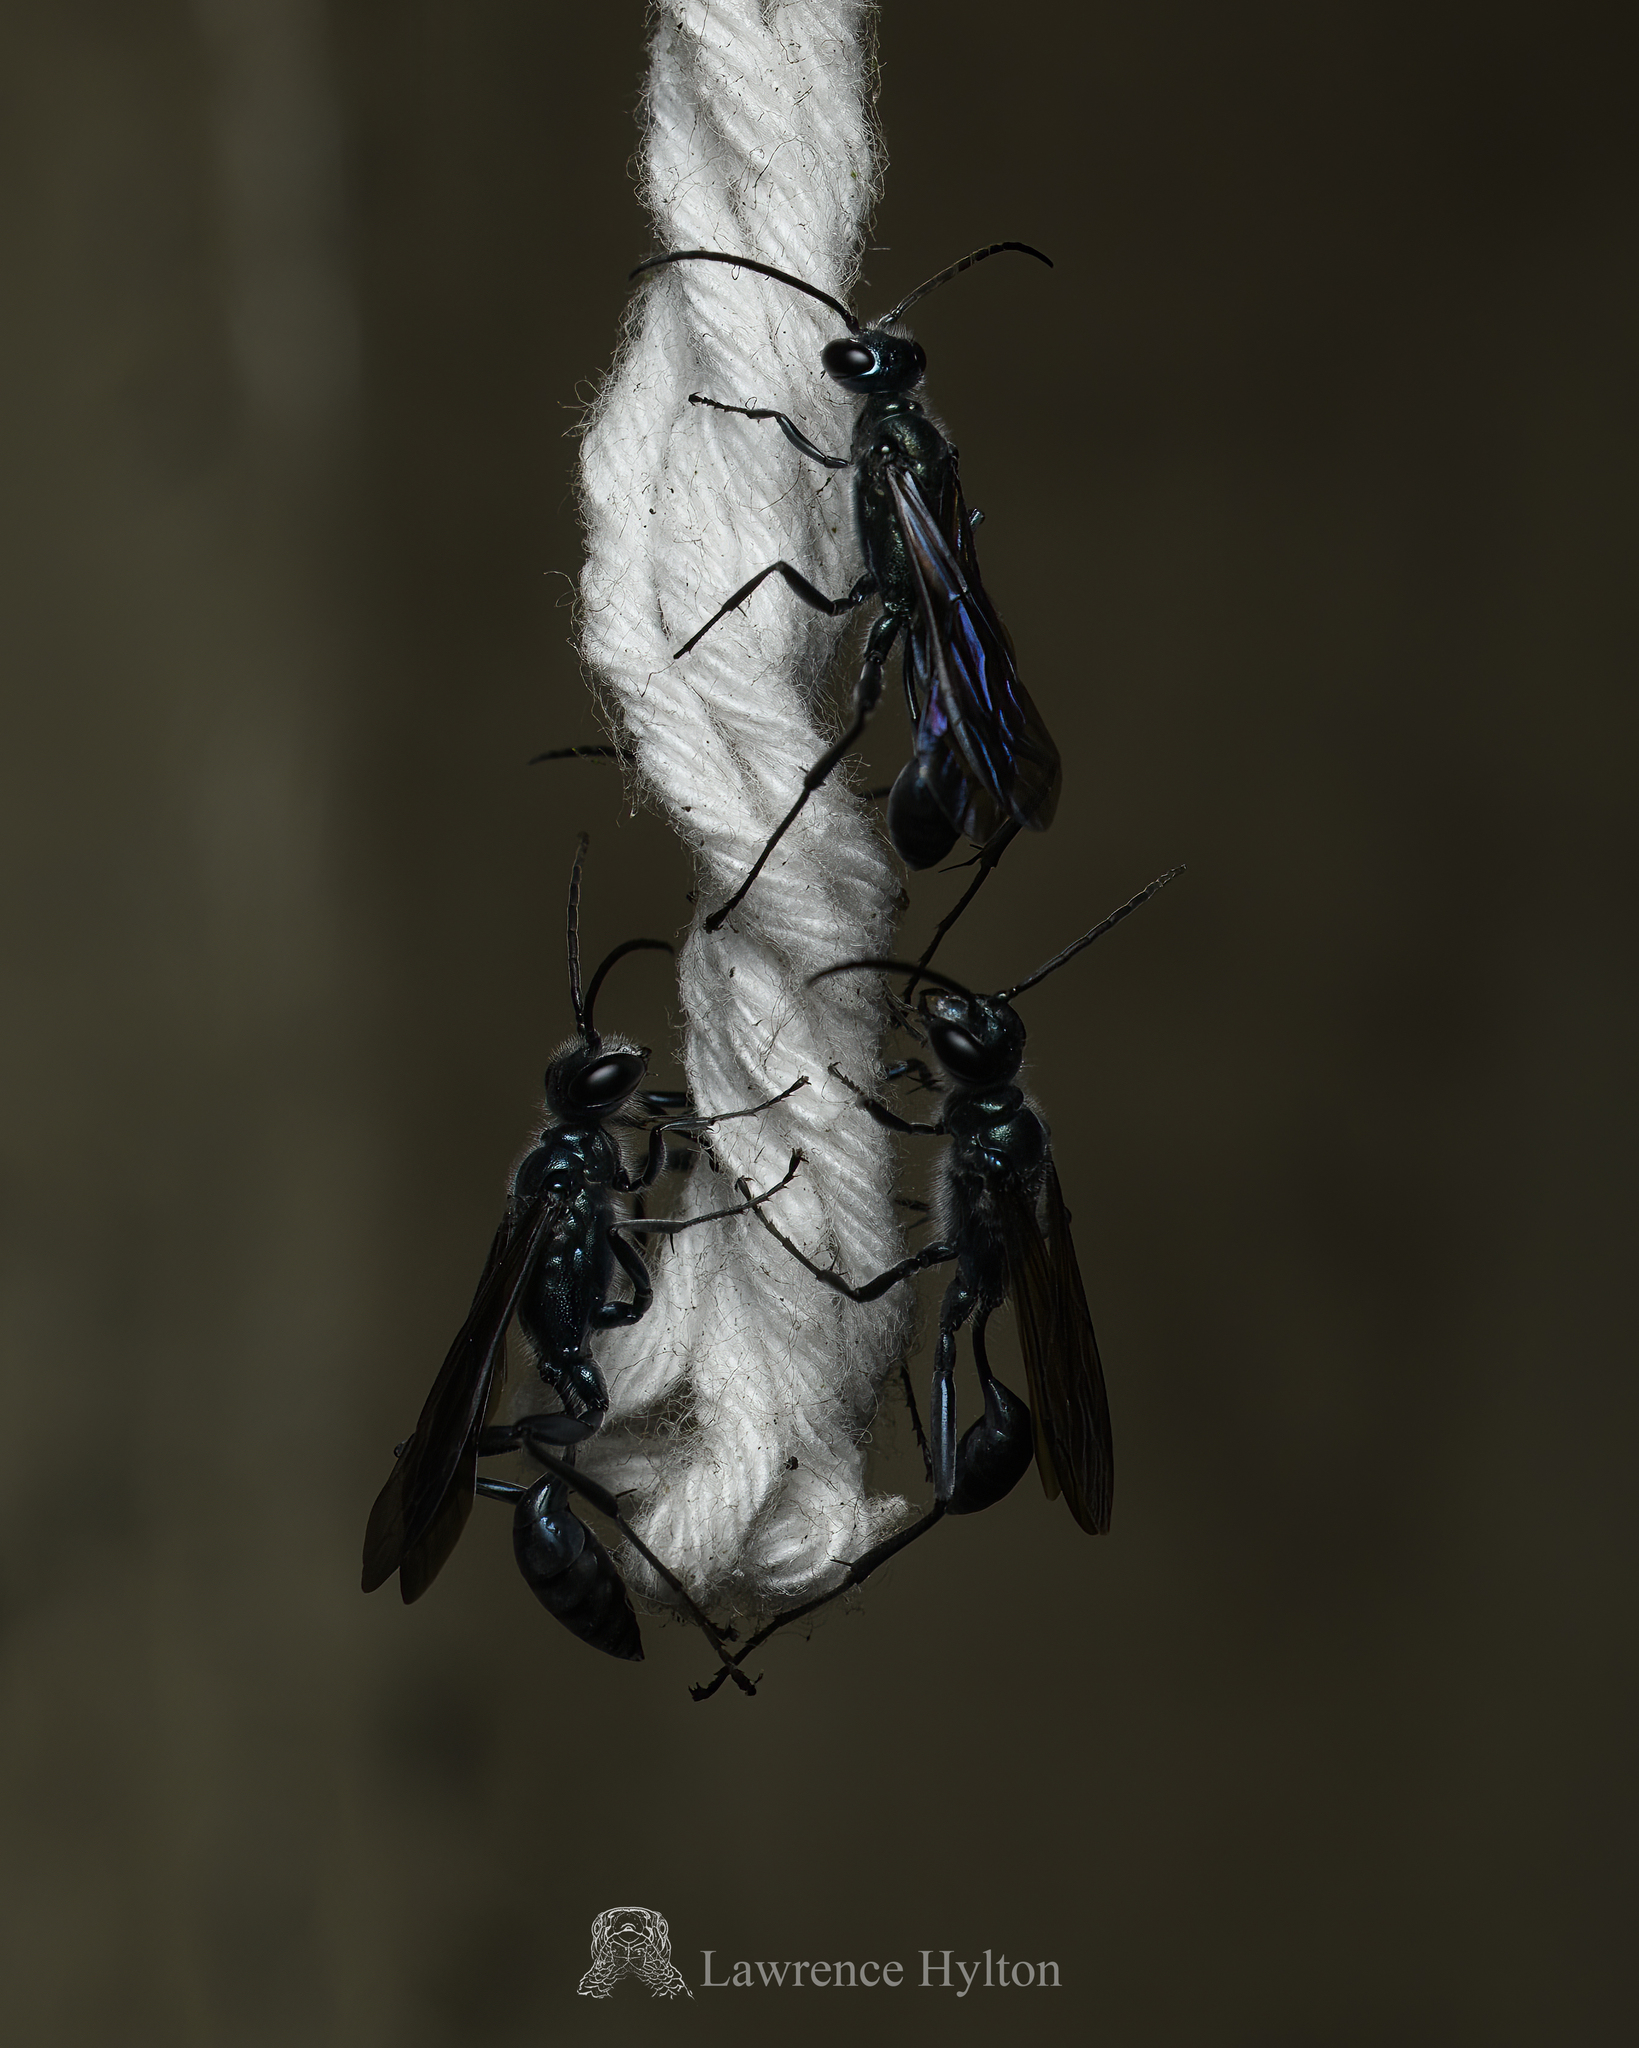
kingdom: Animalia
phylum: Arthropoda
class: Insecta
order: Hymenoptera
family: Sphecidae
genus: Chalybion
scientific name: Chalybion japonicum
